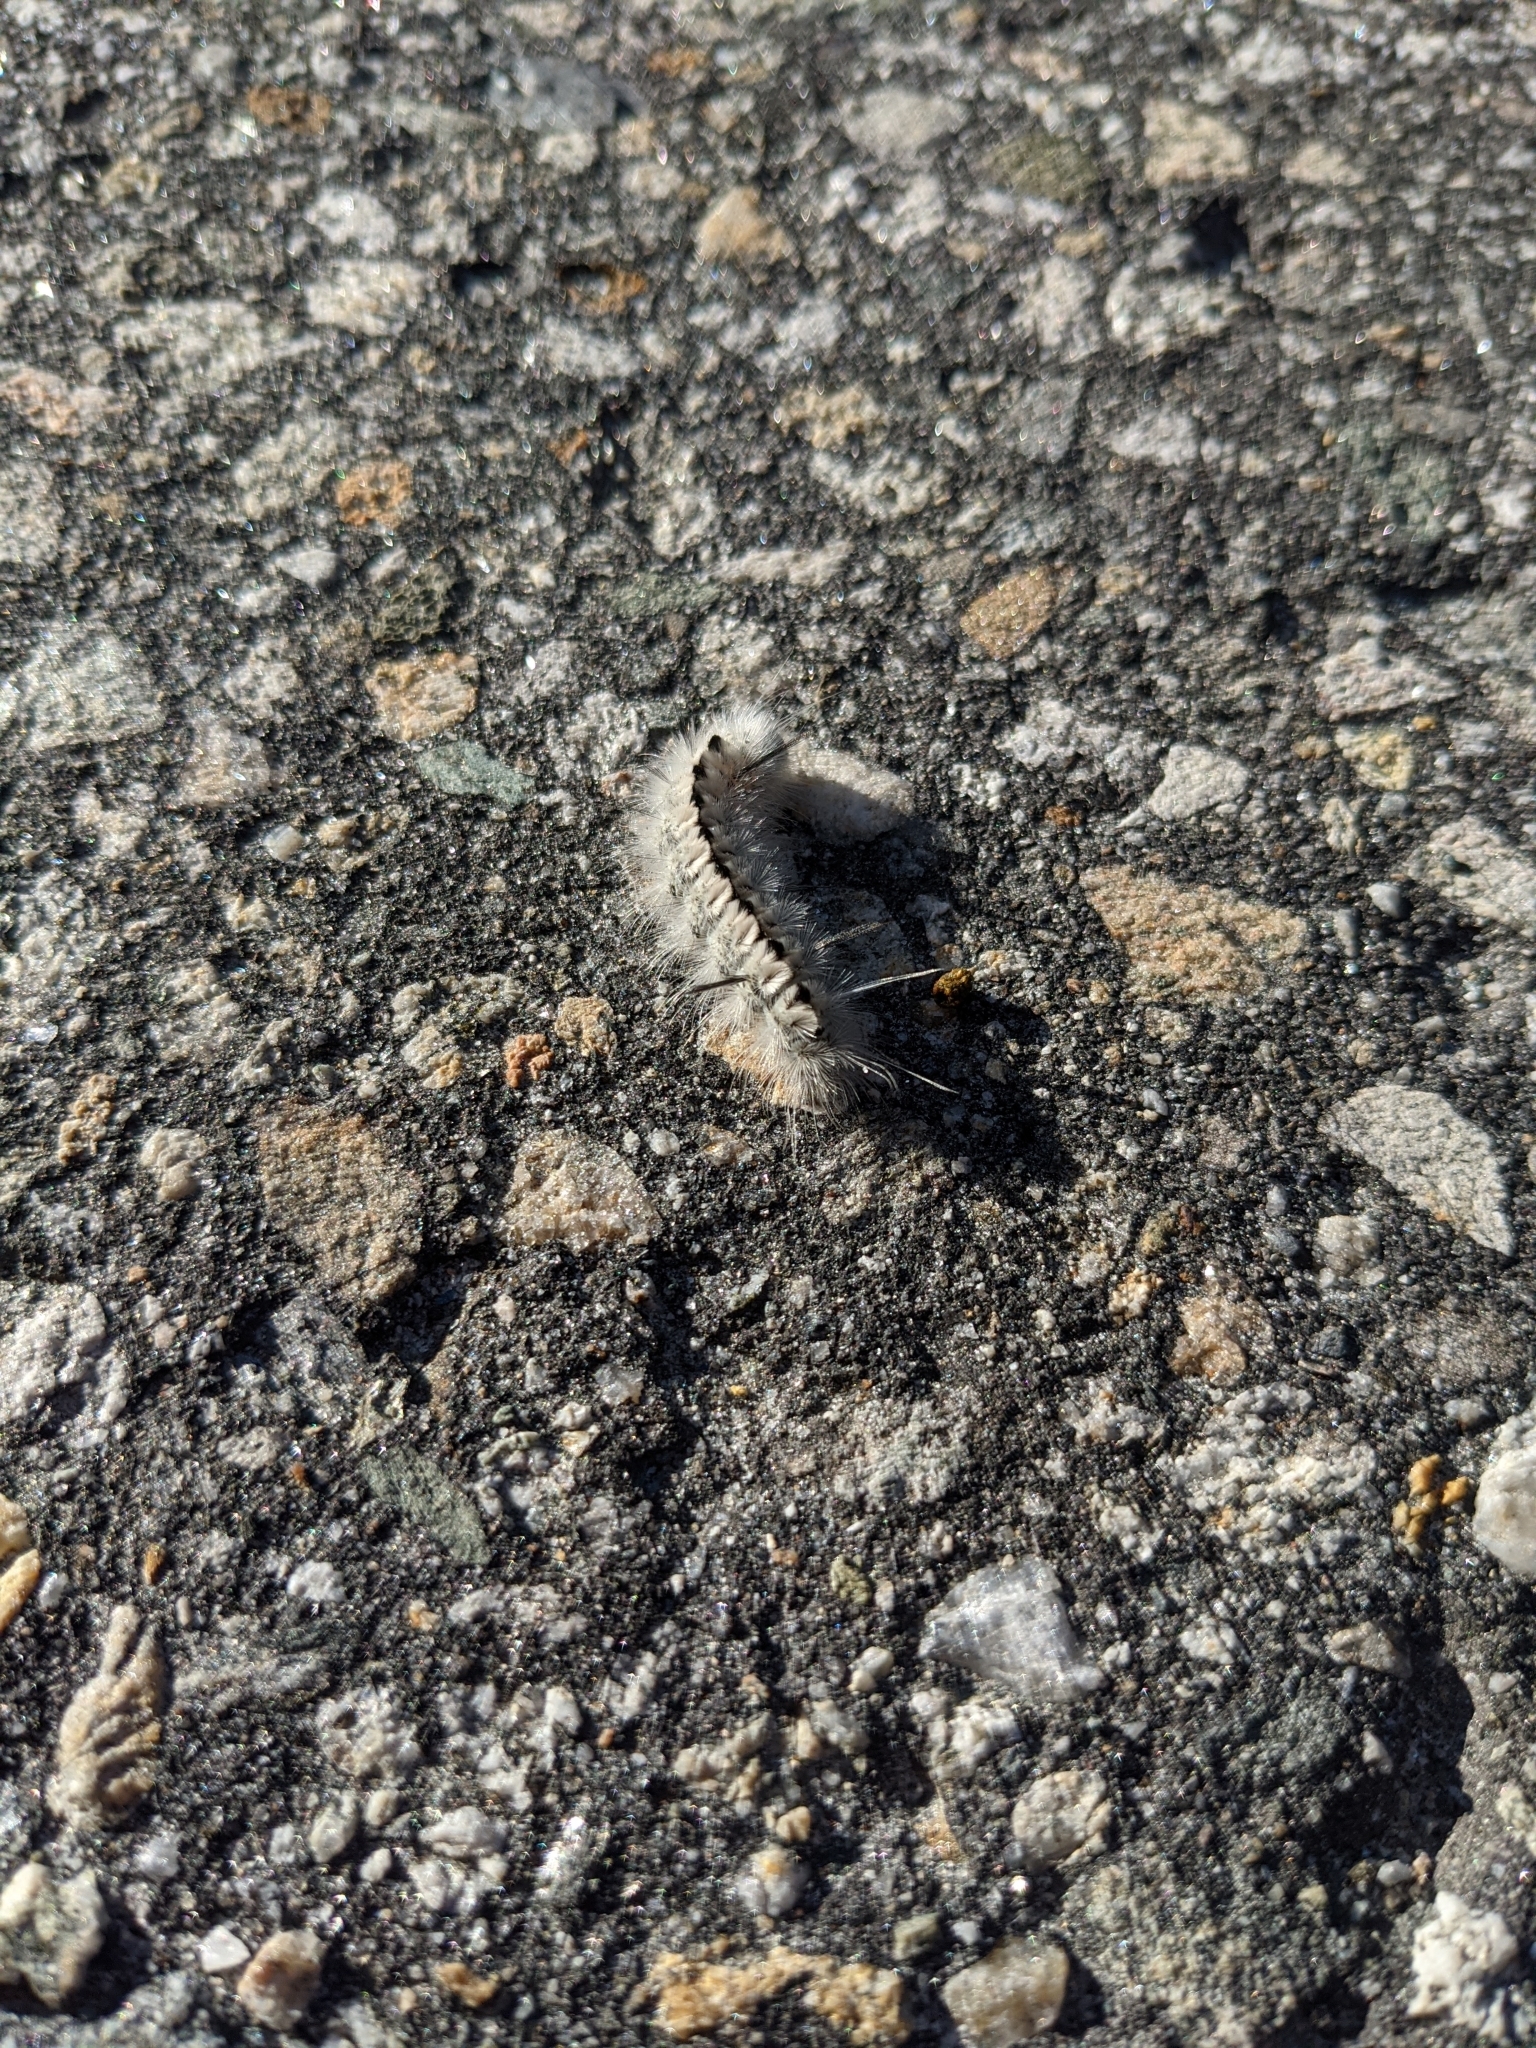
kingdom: Animalia
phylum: Arthropoda
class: Insecta
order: Lepidoptera
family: Erebidae
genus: Lophocampa
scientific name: Lophocampa caryae
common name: Hickory tussock moth
